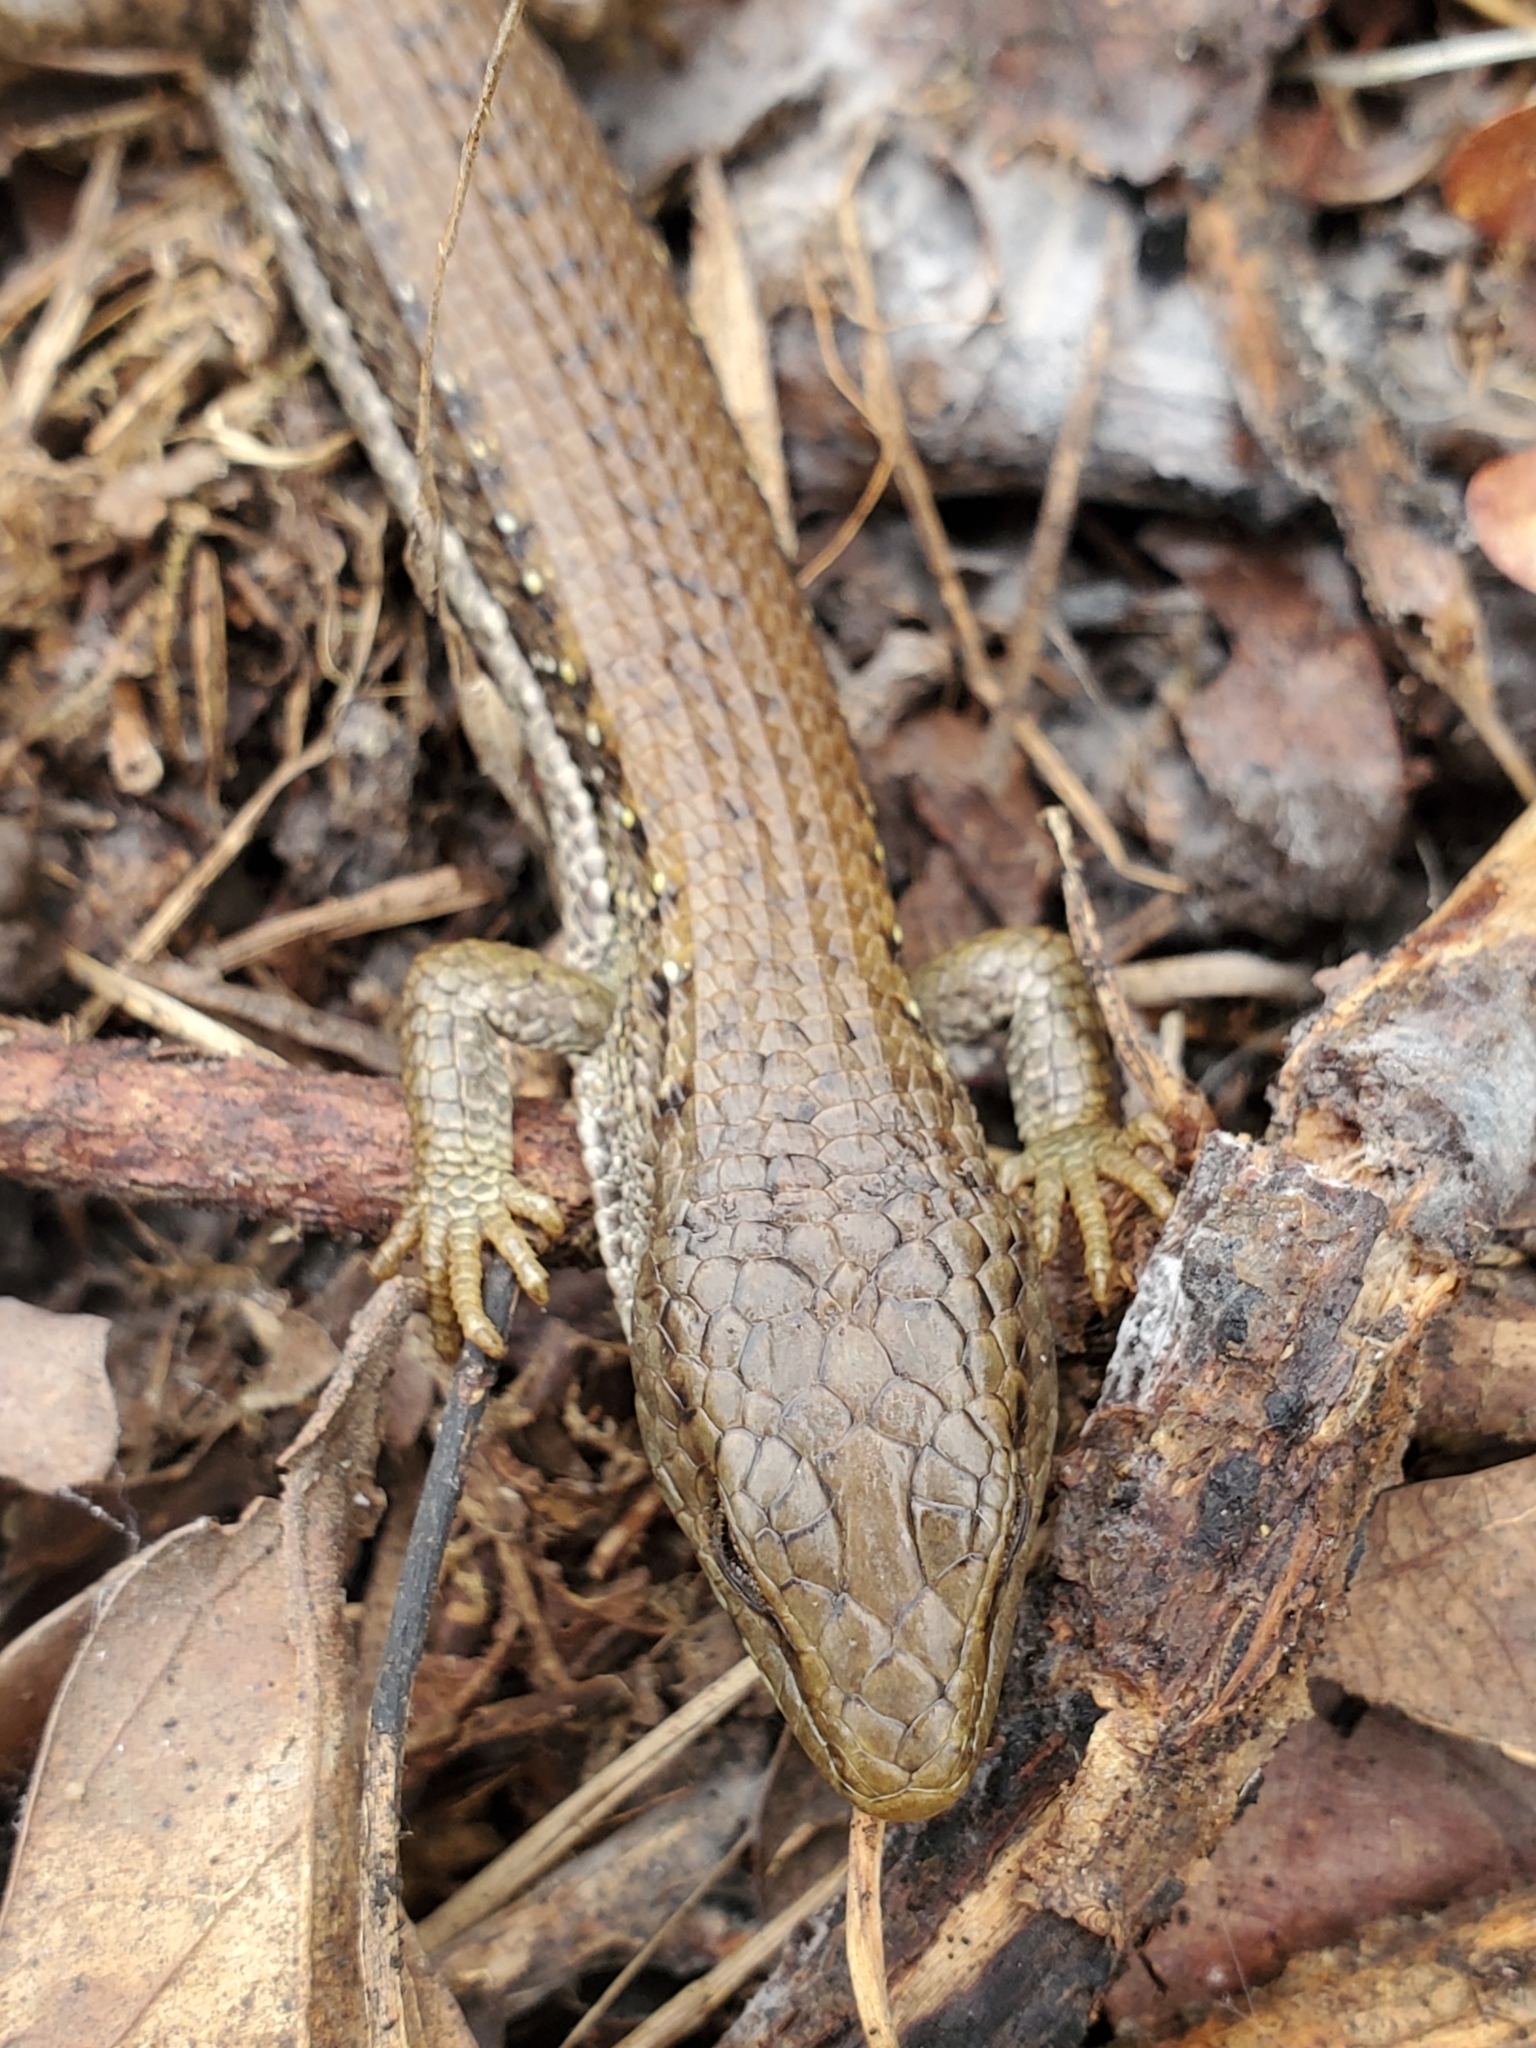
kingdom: Animalia
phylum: Chordata
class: Squamata
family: Anguidae
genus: Elgaria
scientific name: Elgaria coerulea
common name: Northern alligator lizard
